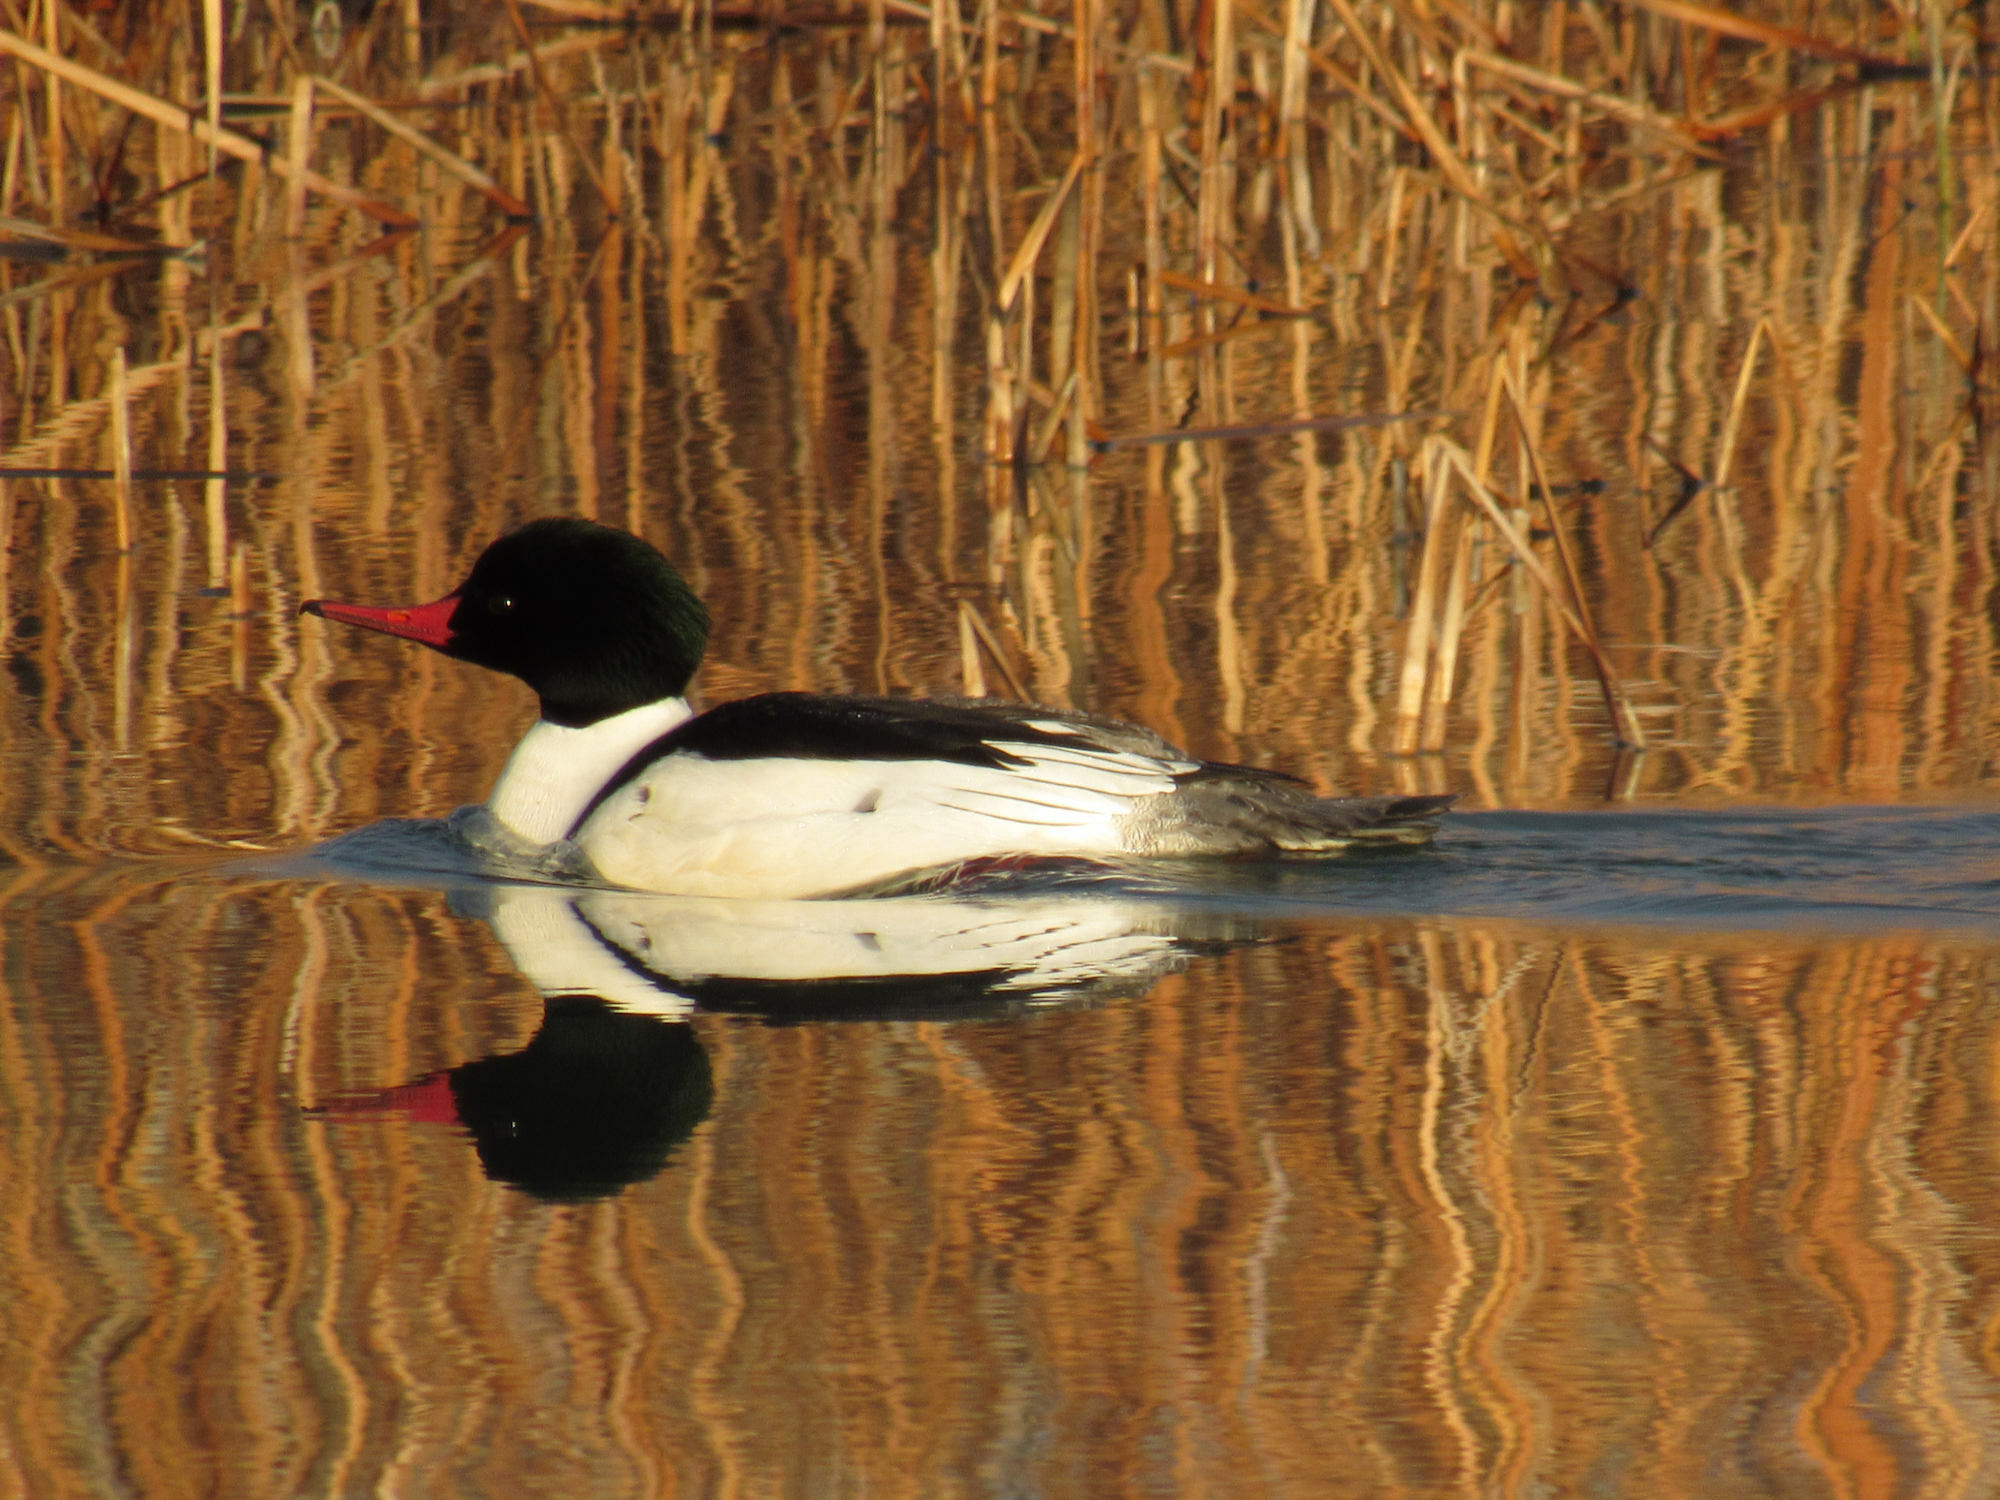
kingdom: Animalia
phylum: Chordata
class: Aves
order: Anseriformes
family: Anatidae
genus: Mergus
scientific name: Mergus merganser
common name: Common merganser
